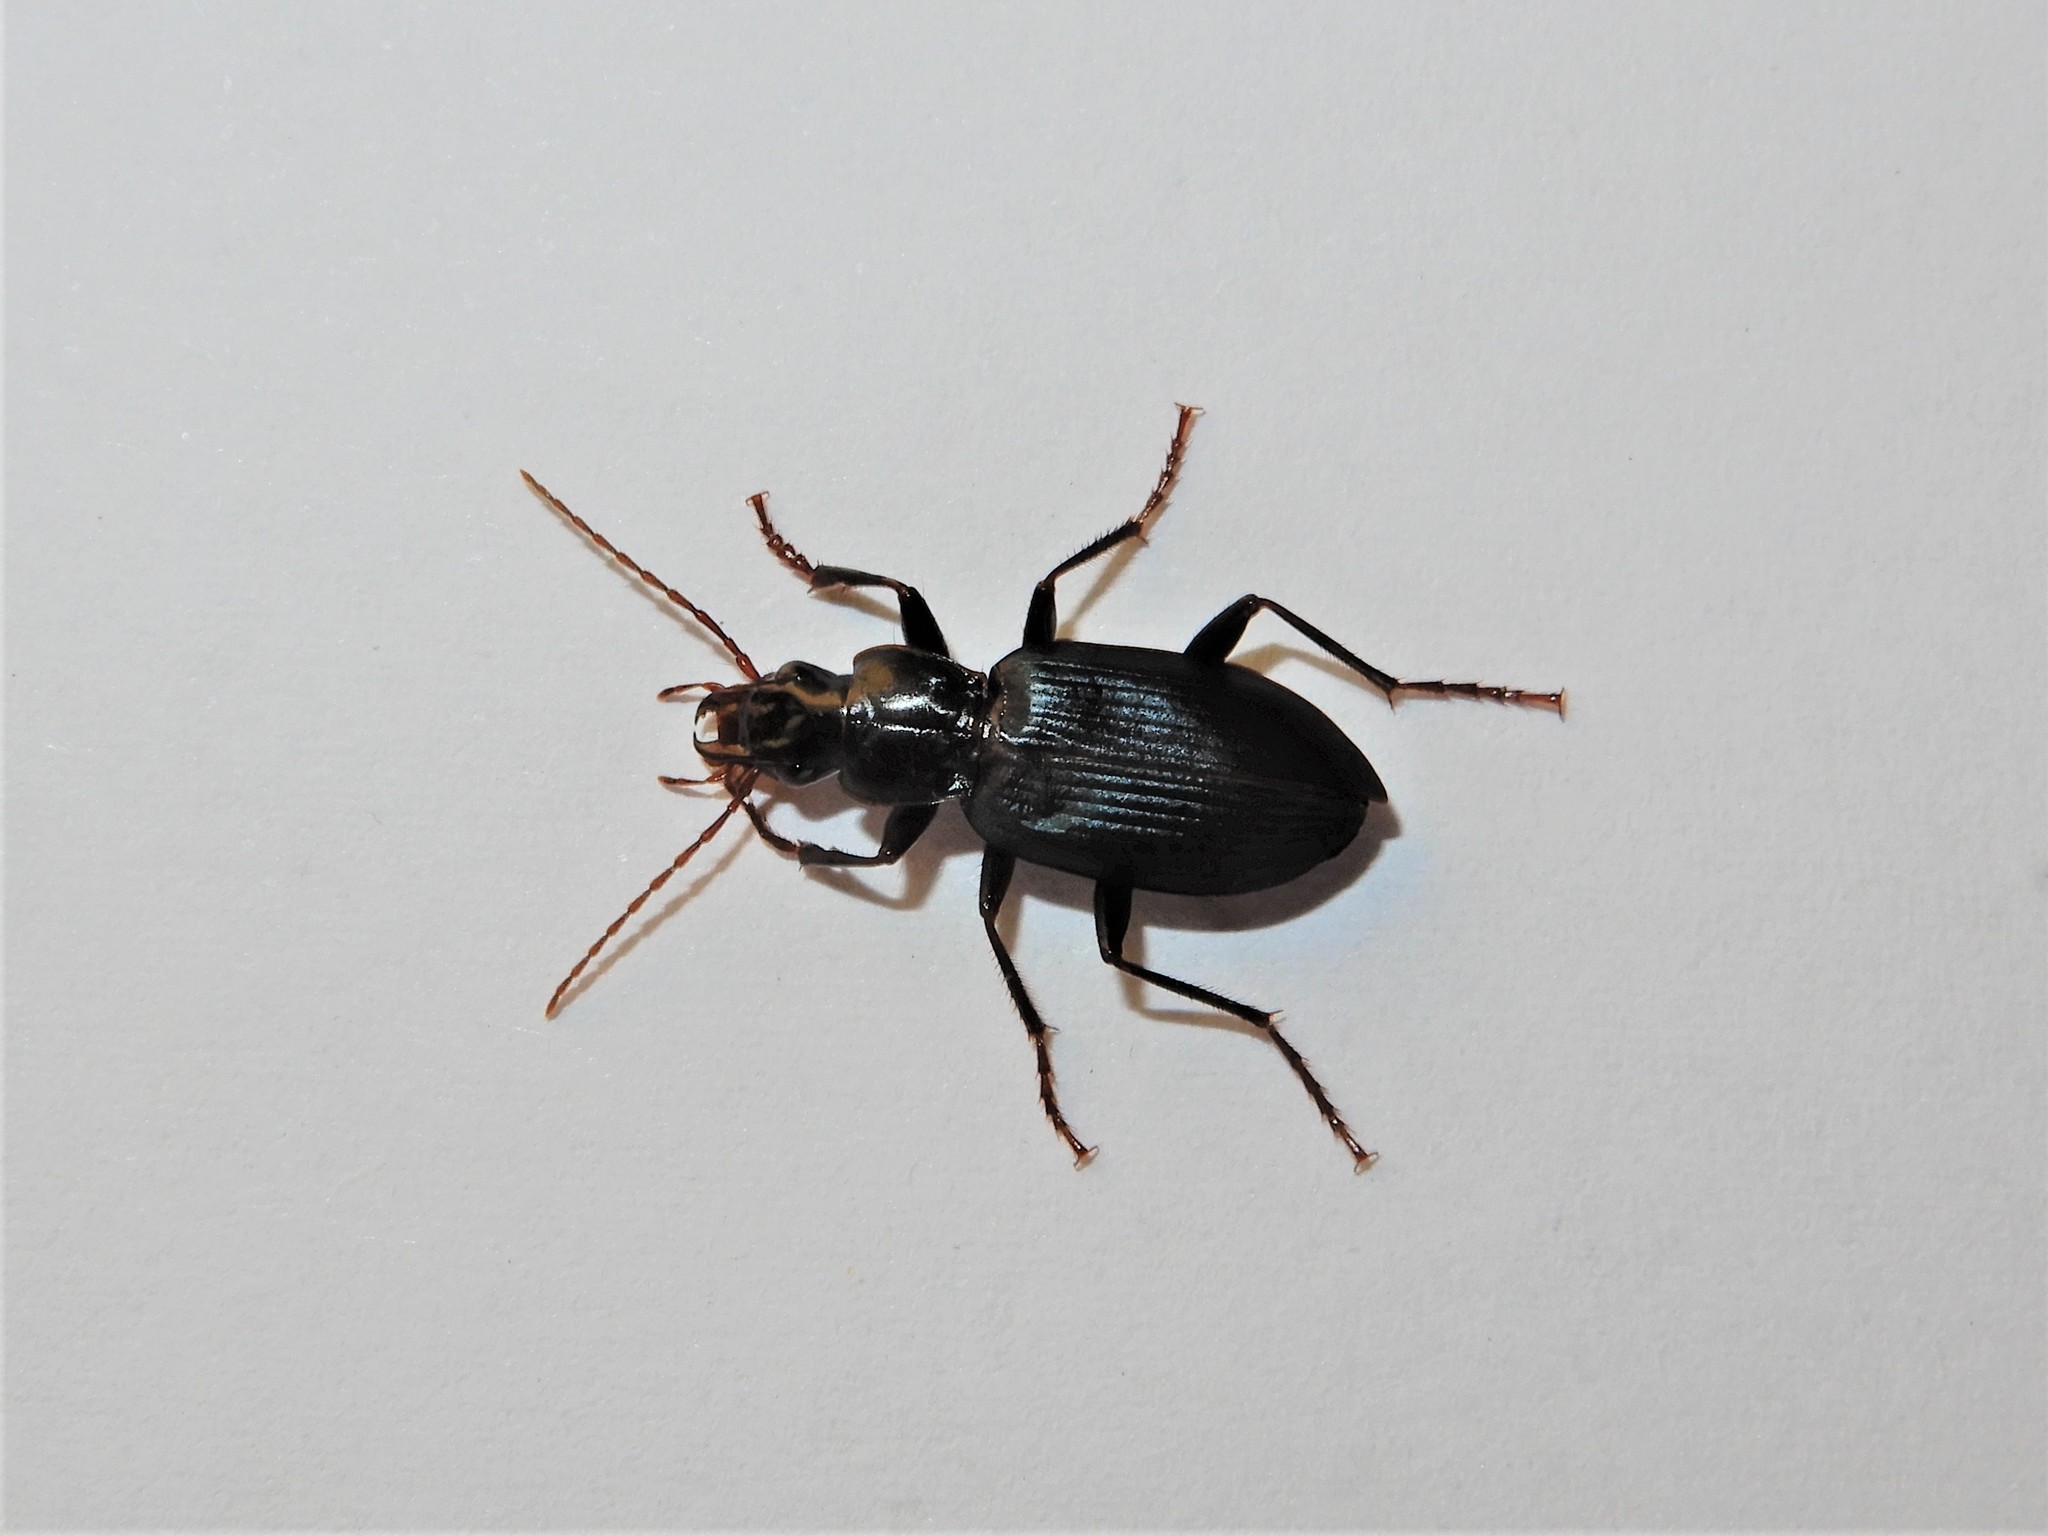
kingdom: Animalia
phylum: Arthropoda
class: Insecta
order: Coleoptera
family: Carabidae
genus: Laemostenus
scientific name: Laemostenus complanatus
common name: Cosmopolitan ground beetle
